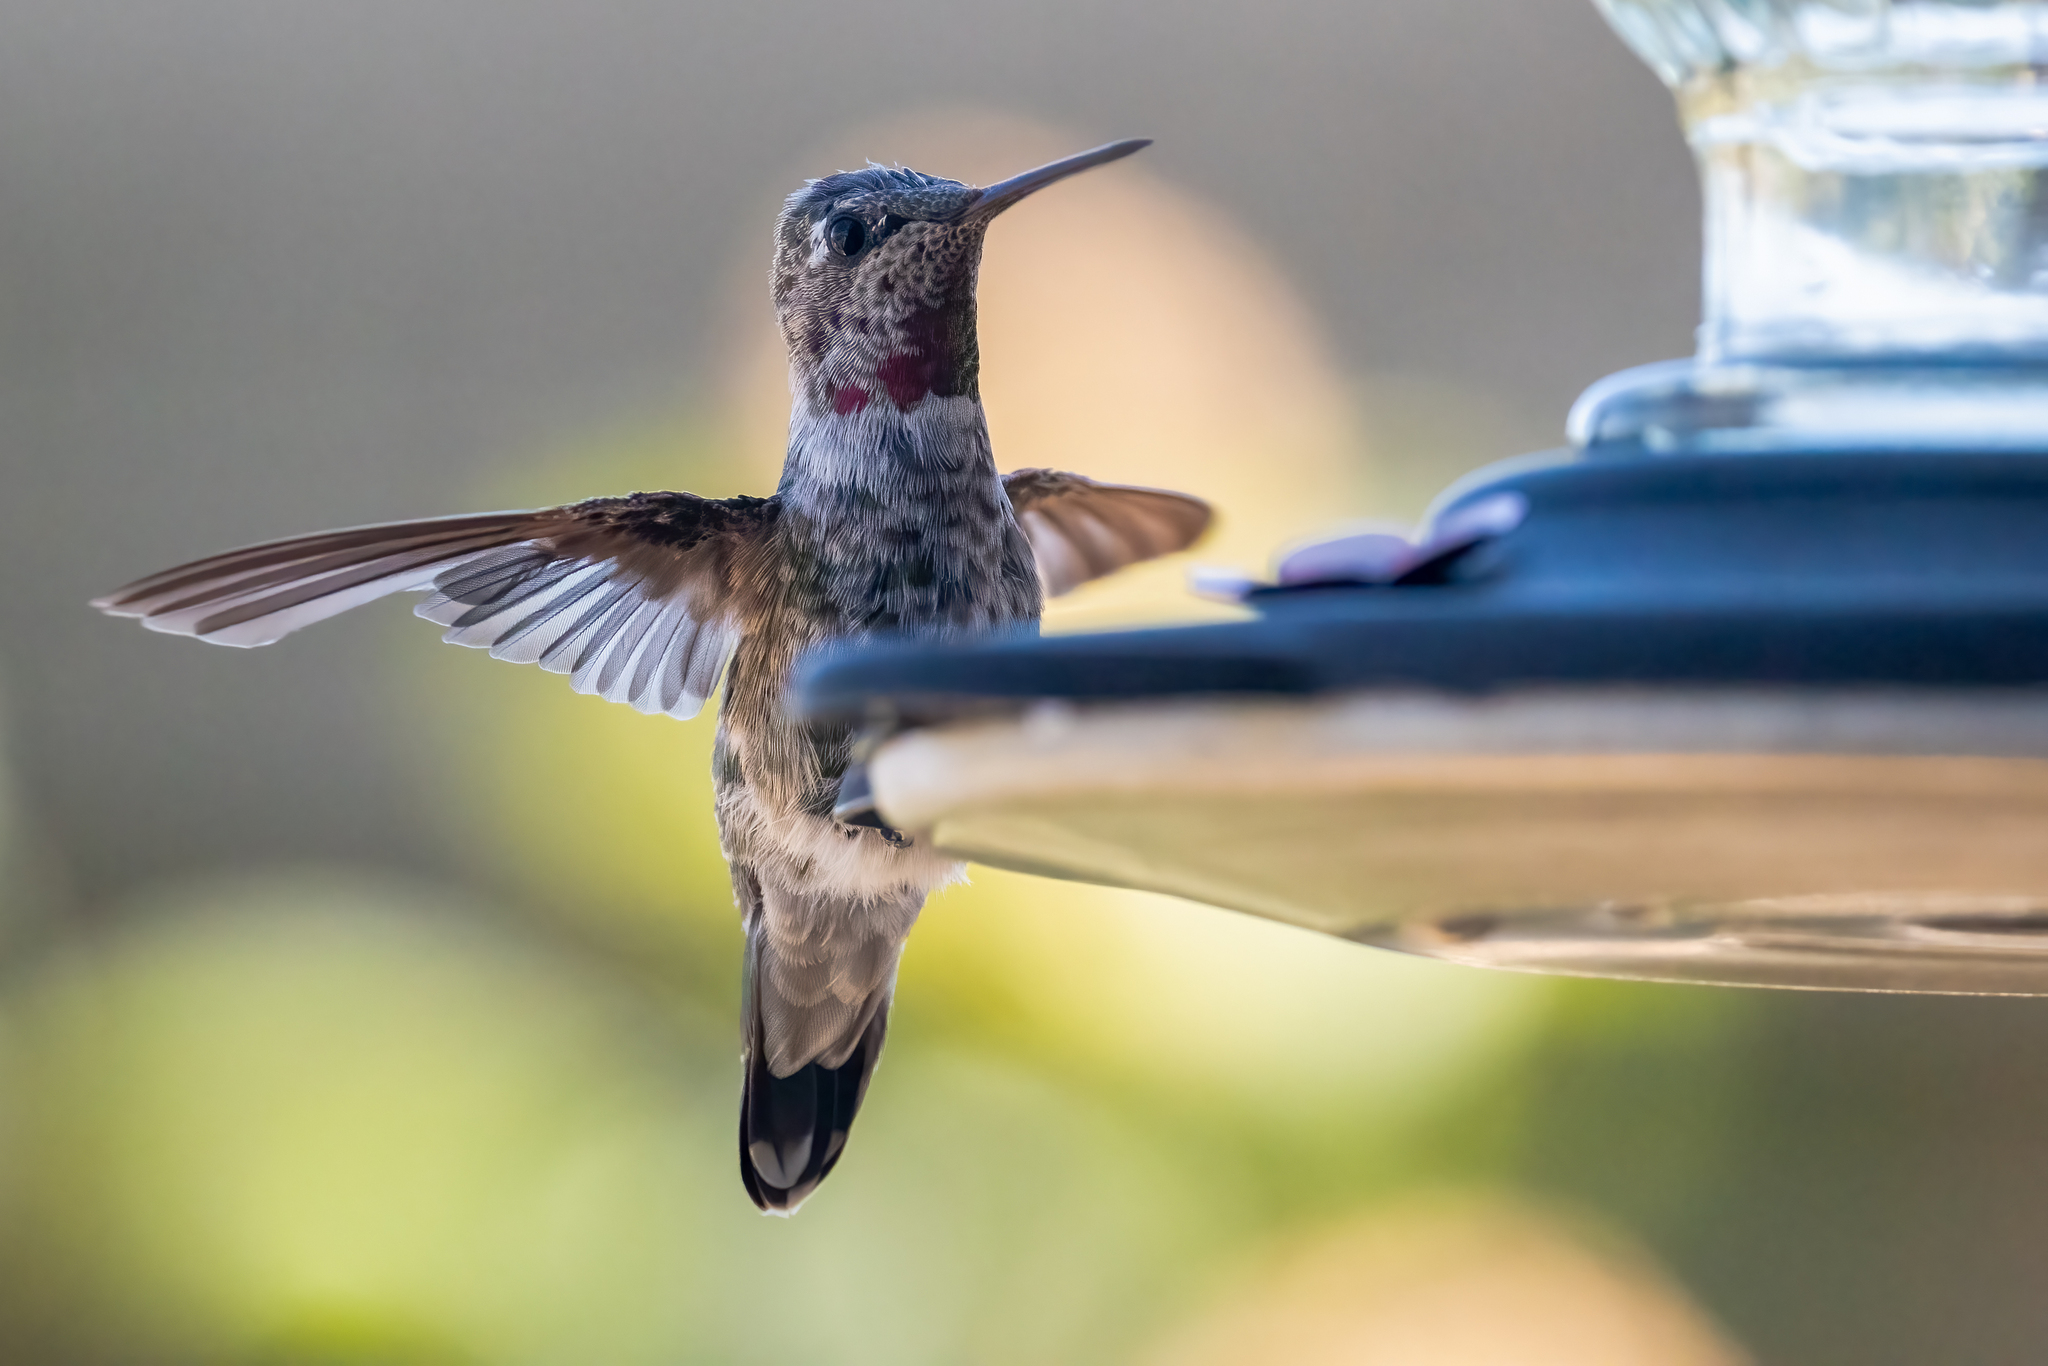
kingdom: Animalia
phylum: Chordata
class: Aves
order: Apodiformes
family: Trochilidae
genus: Calypte
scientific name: Calypte anna
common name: Anna's hummingbird
